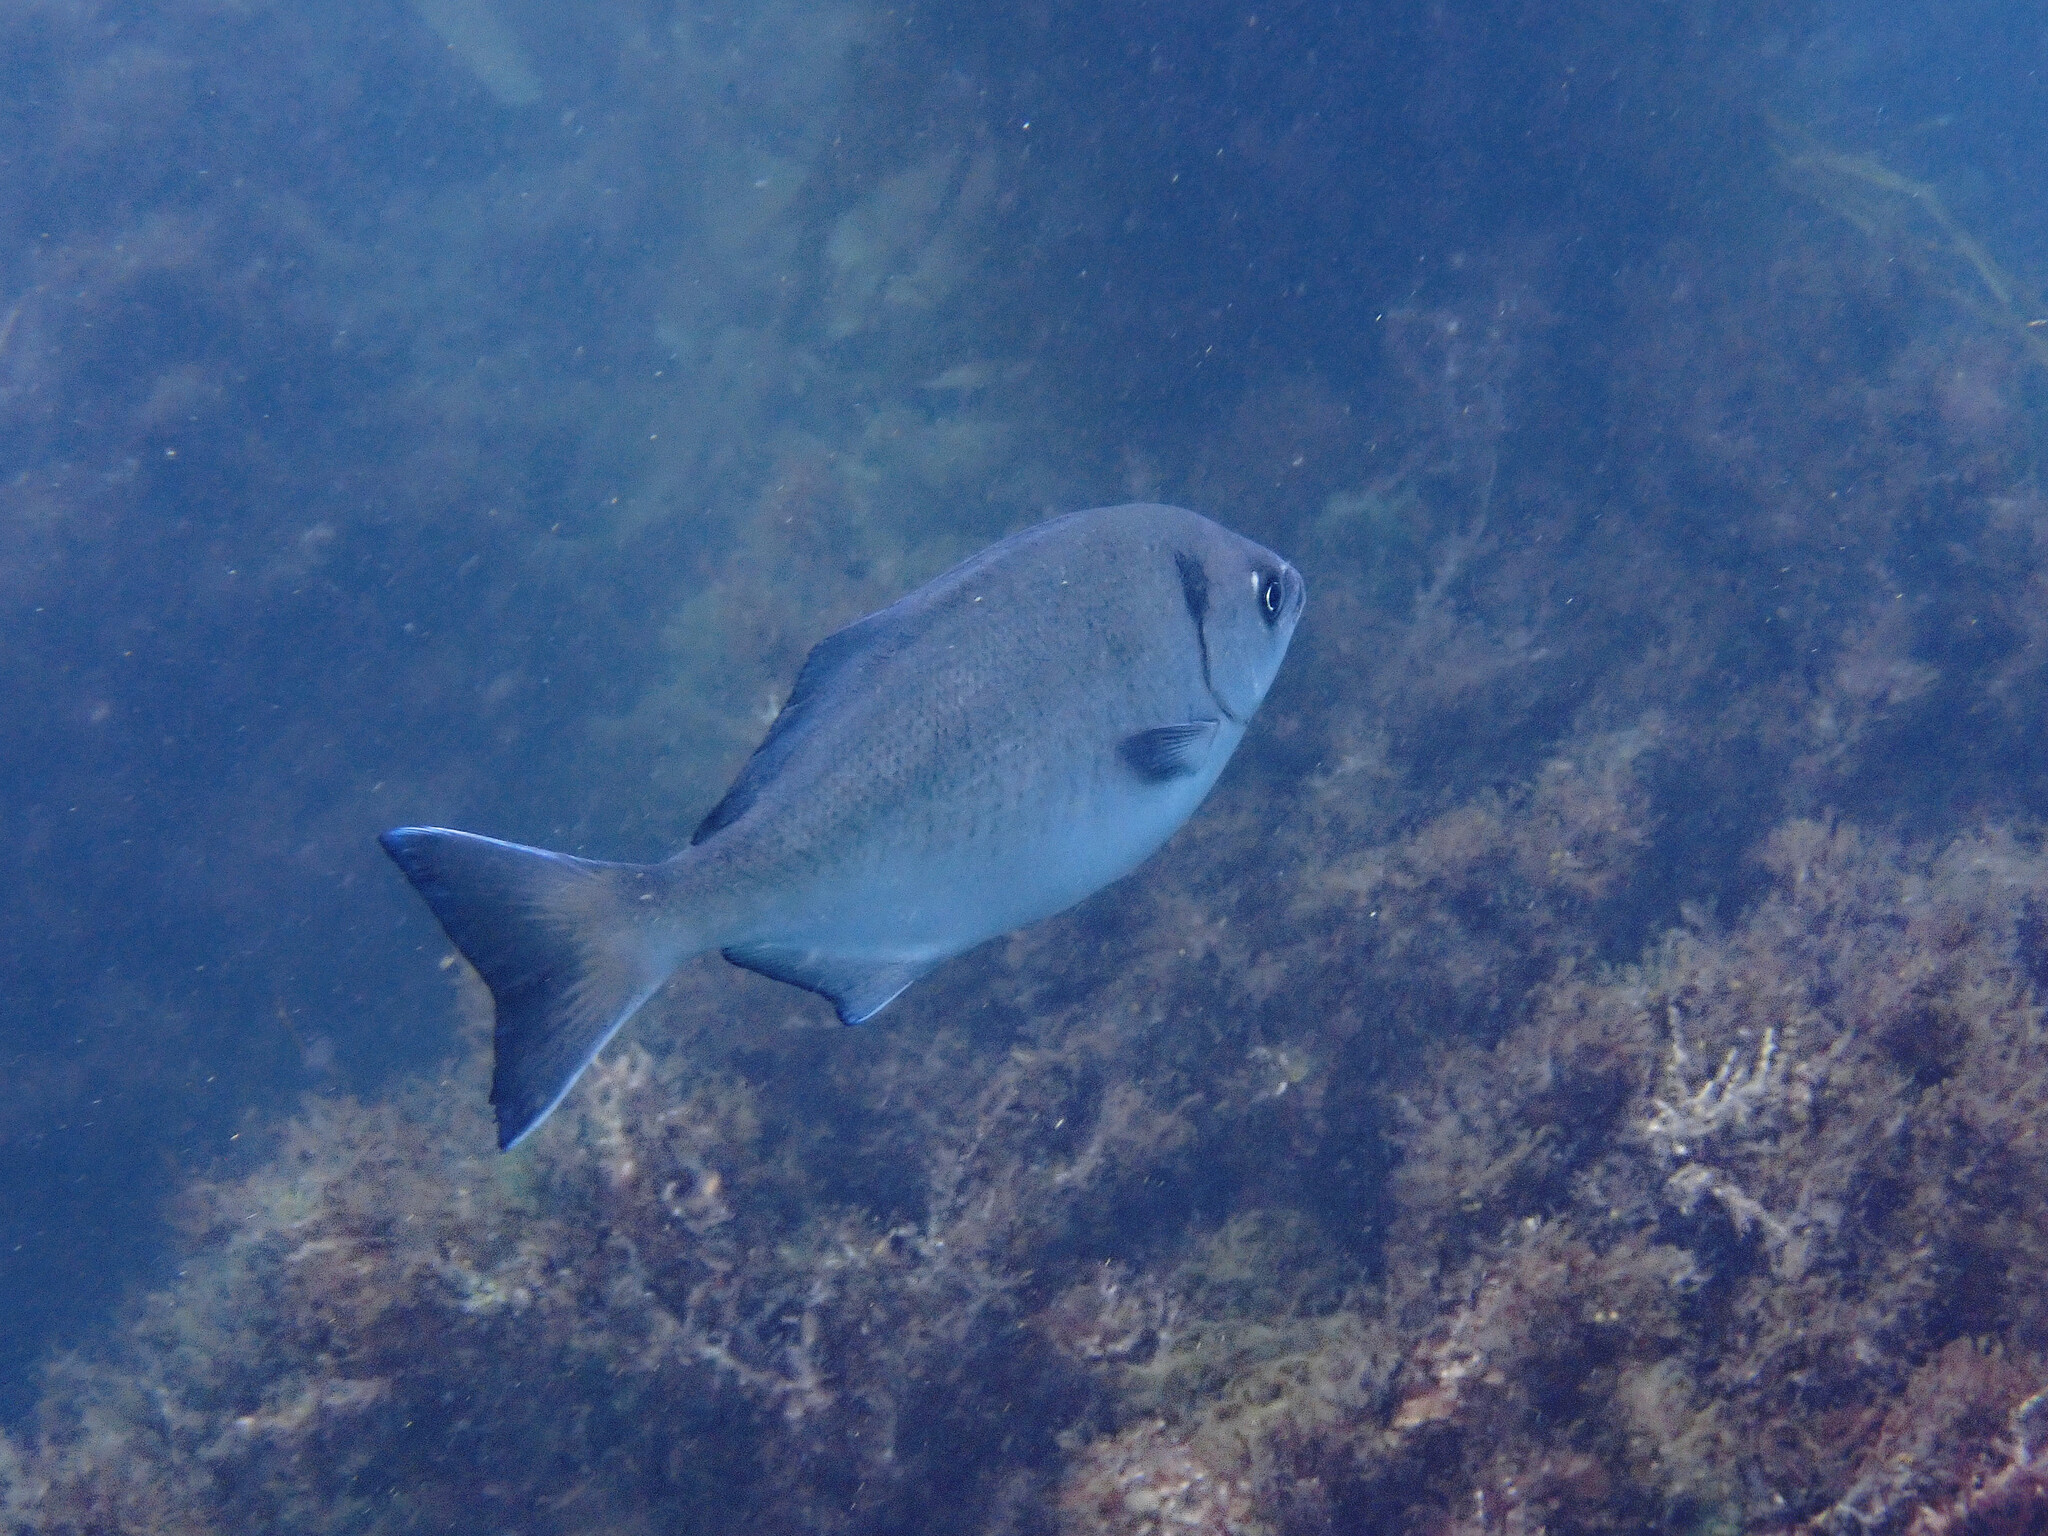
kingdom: Animalia
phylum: Chordata
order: Perciformes
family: Kyphosidae
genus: Medialuna
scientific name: Medialuna californiensis
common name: Halfmoon
